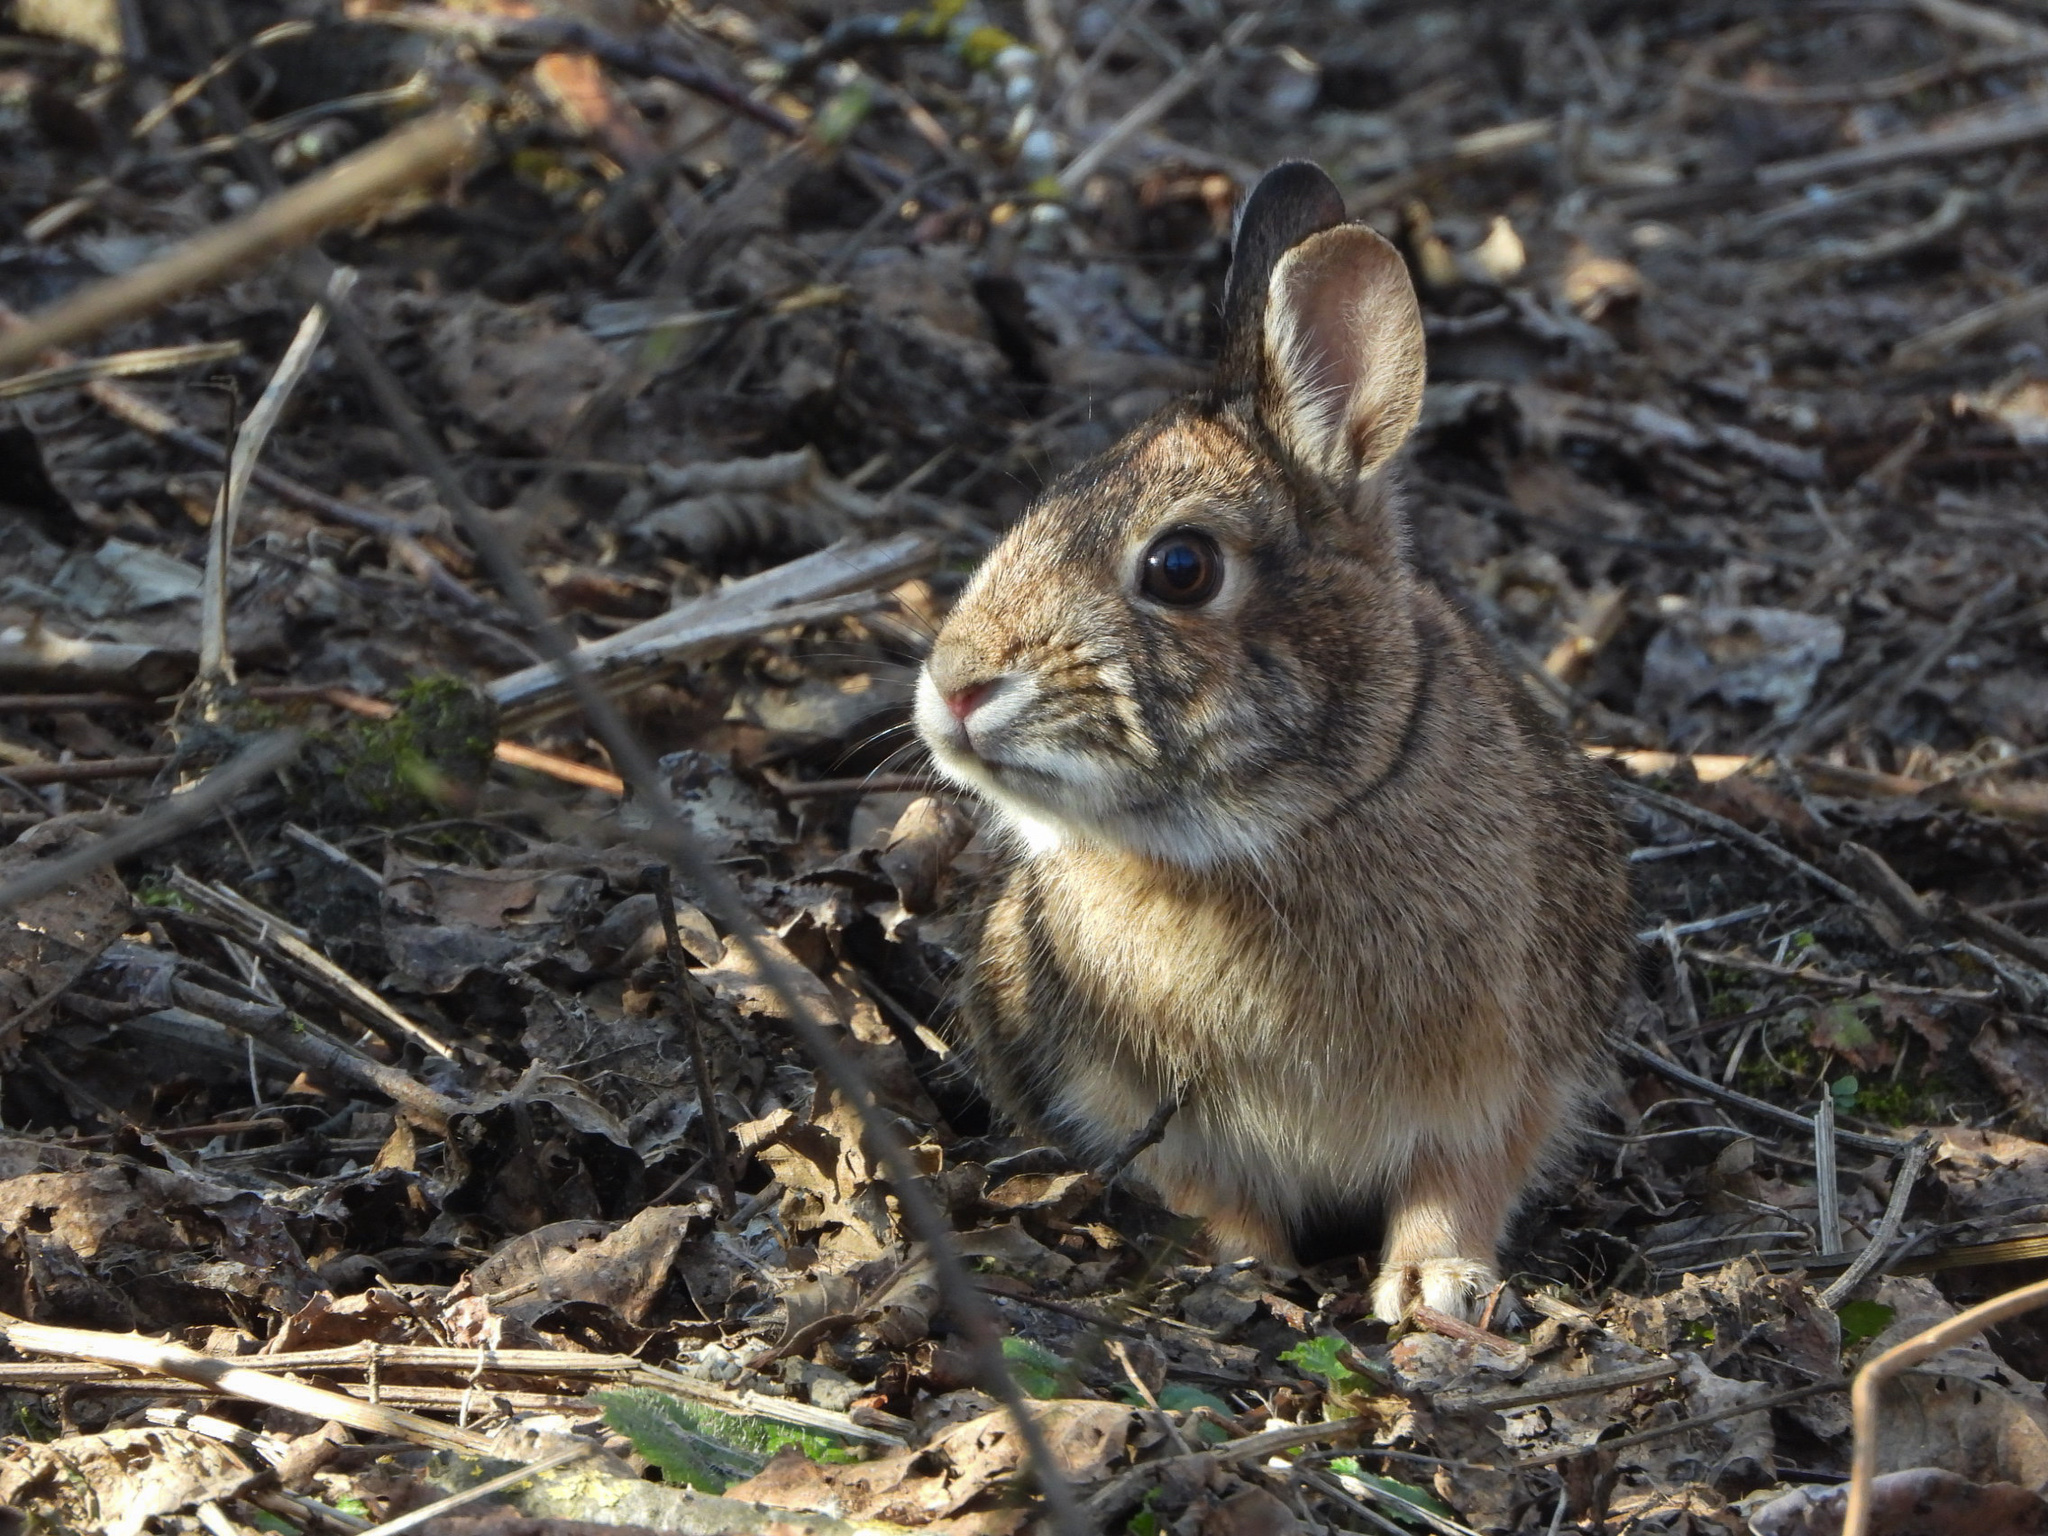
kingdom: Animalia
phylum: Chordata
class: Mammalia
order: Lagomorpha
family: Leporidae
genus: Sylvilagus
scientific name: Sylvilagus floridanus
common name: Eastern cottontail
